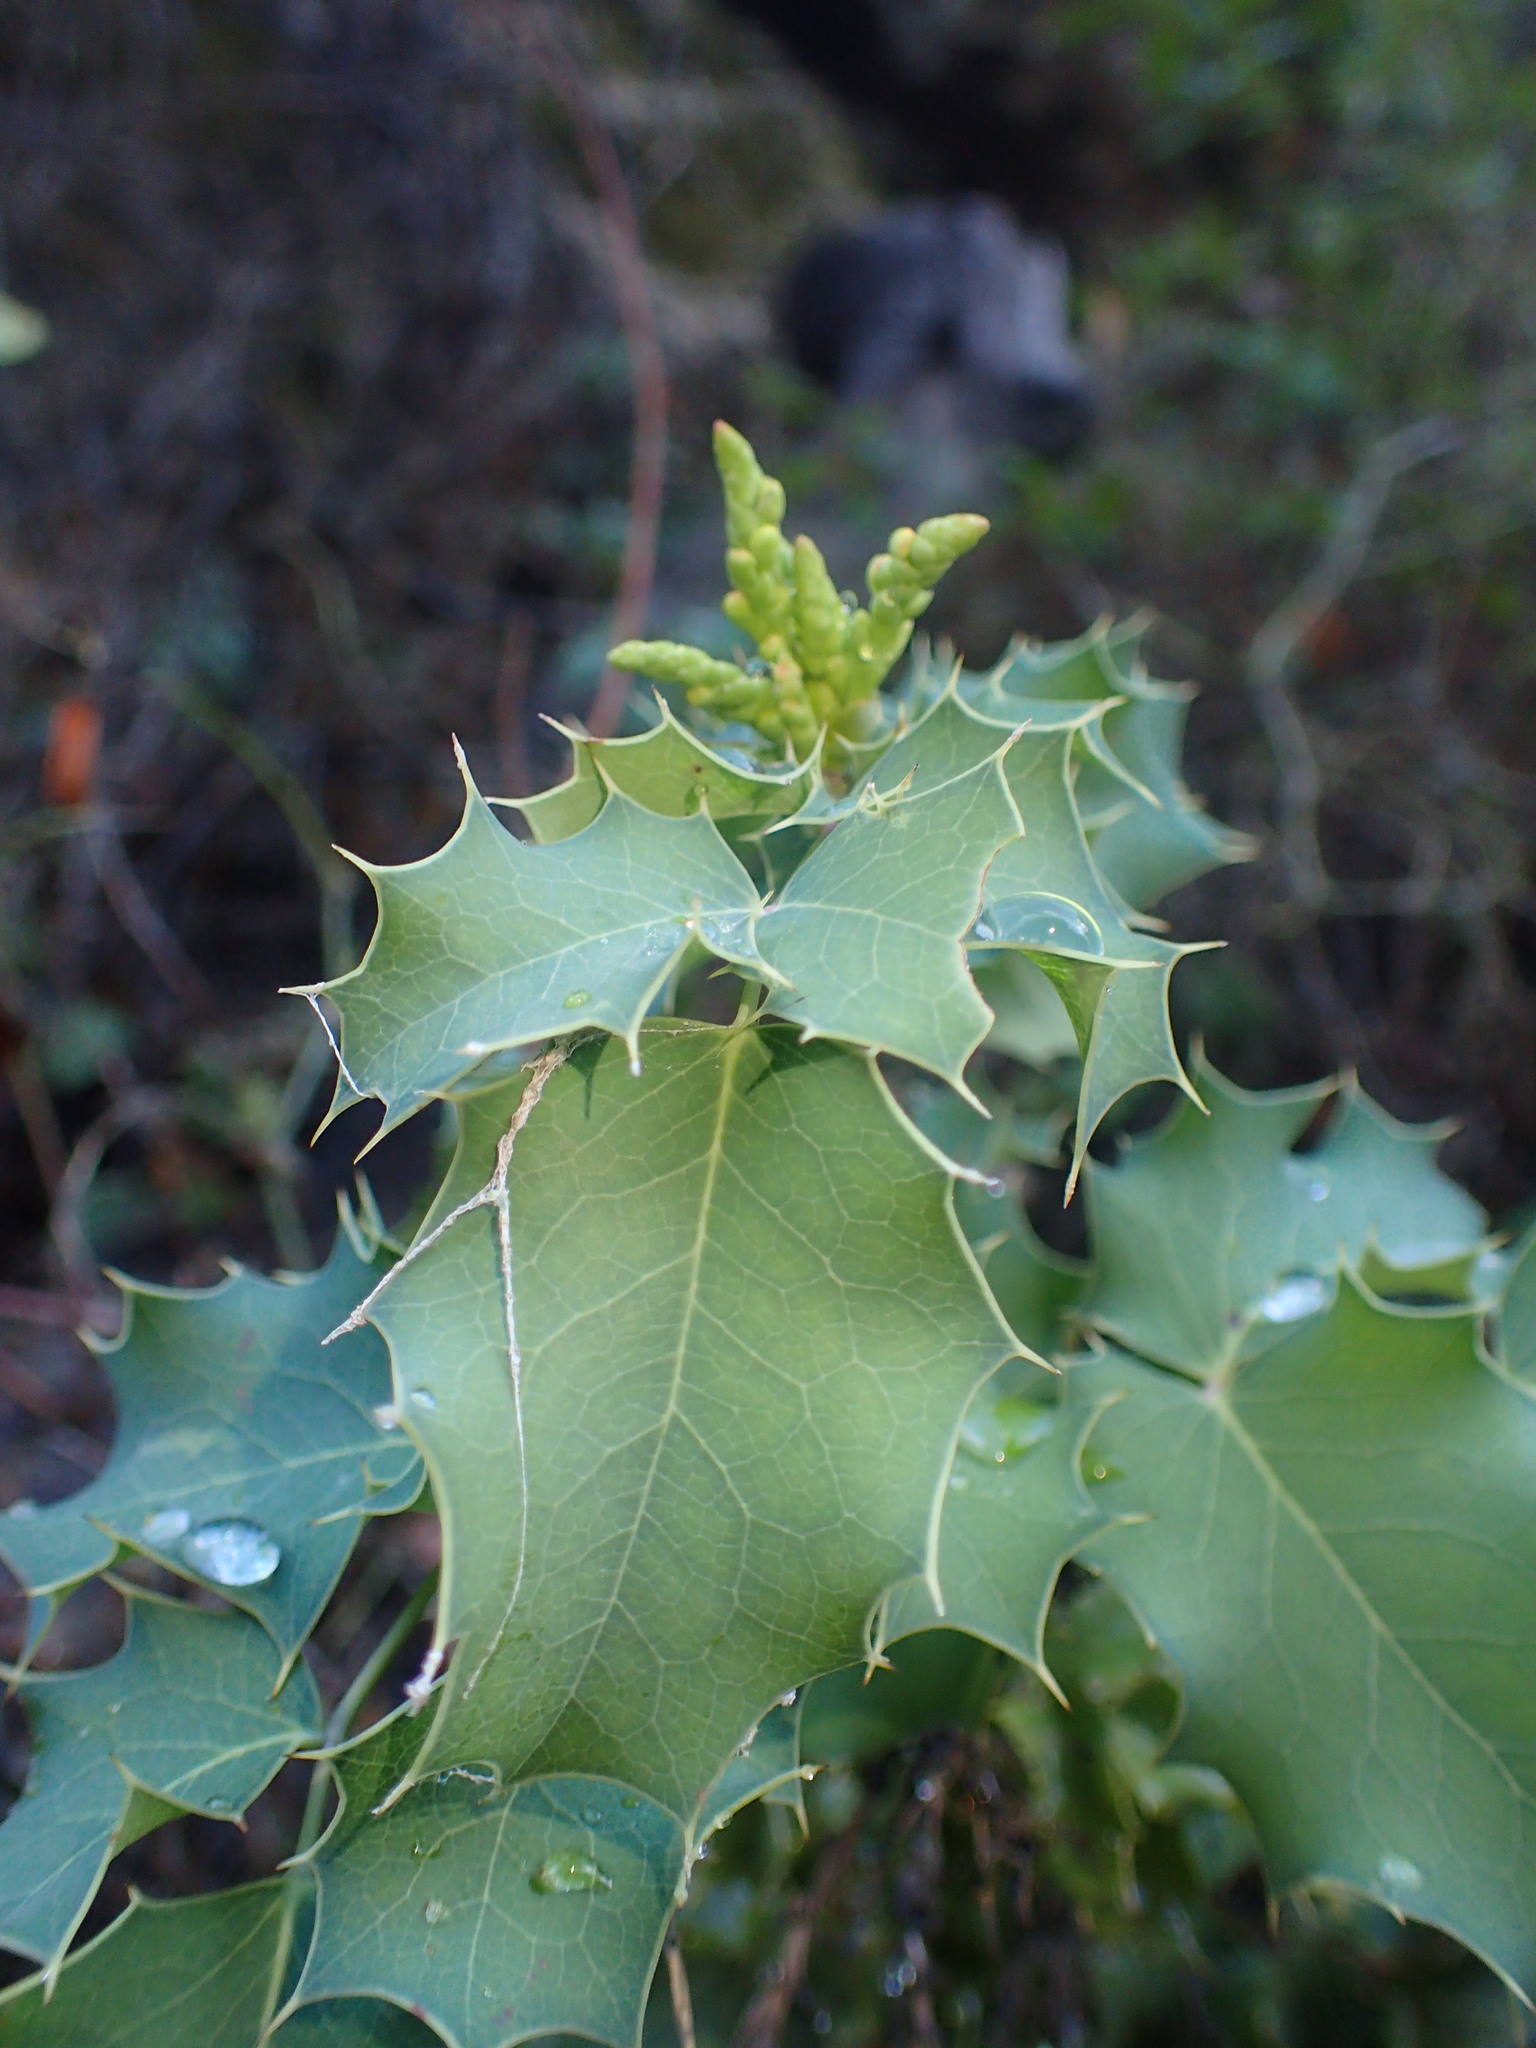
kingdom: Plantae
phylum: Tracheophyta
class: Magnoliopsida
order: Ranunculales
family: Berberidaceae
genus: Mahonia
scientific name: Mahonia dictyota
